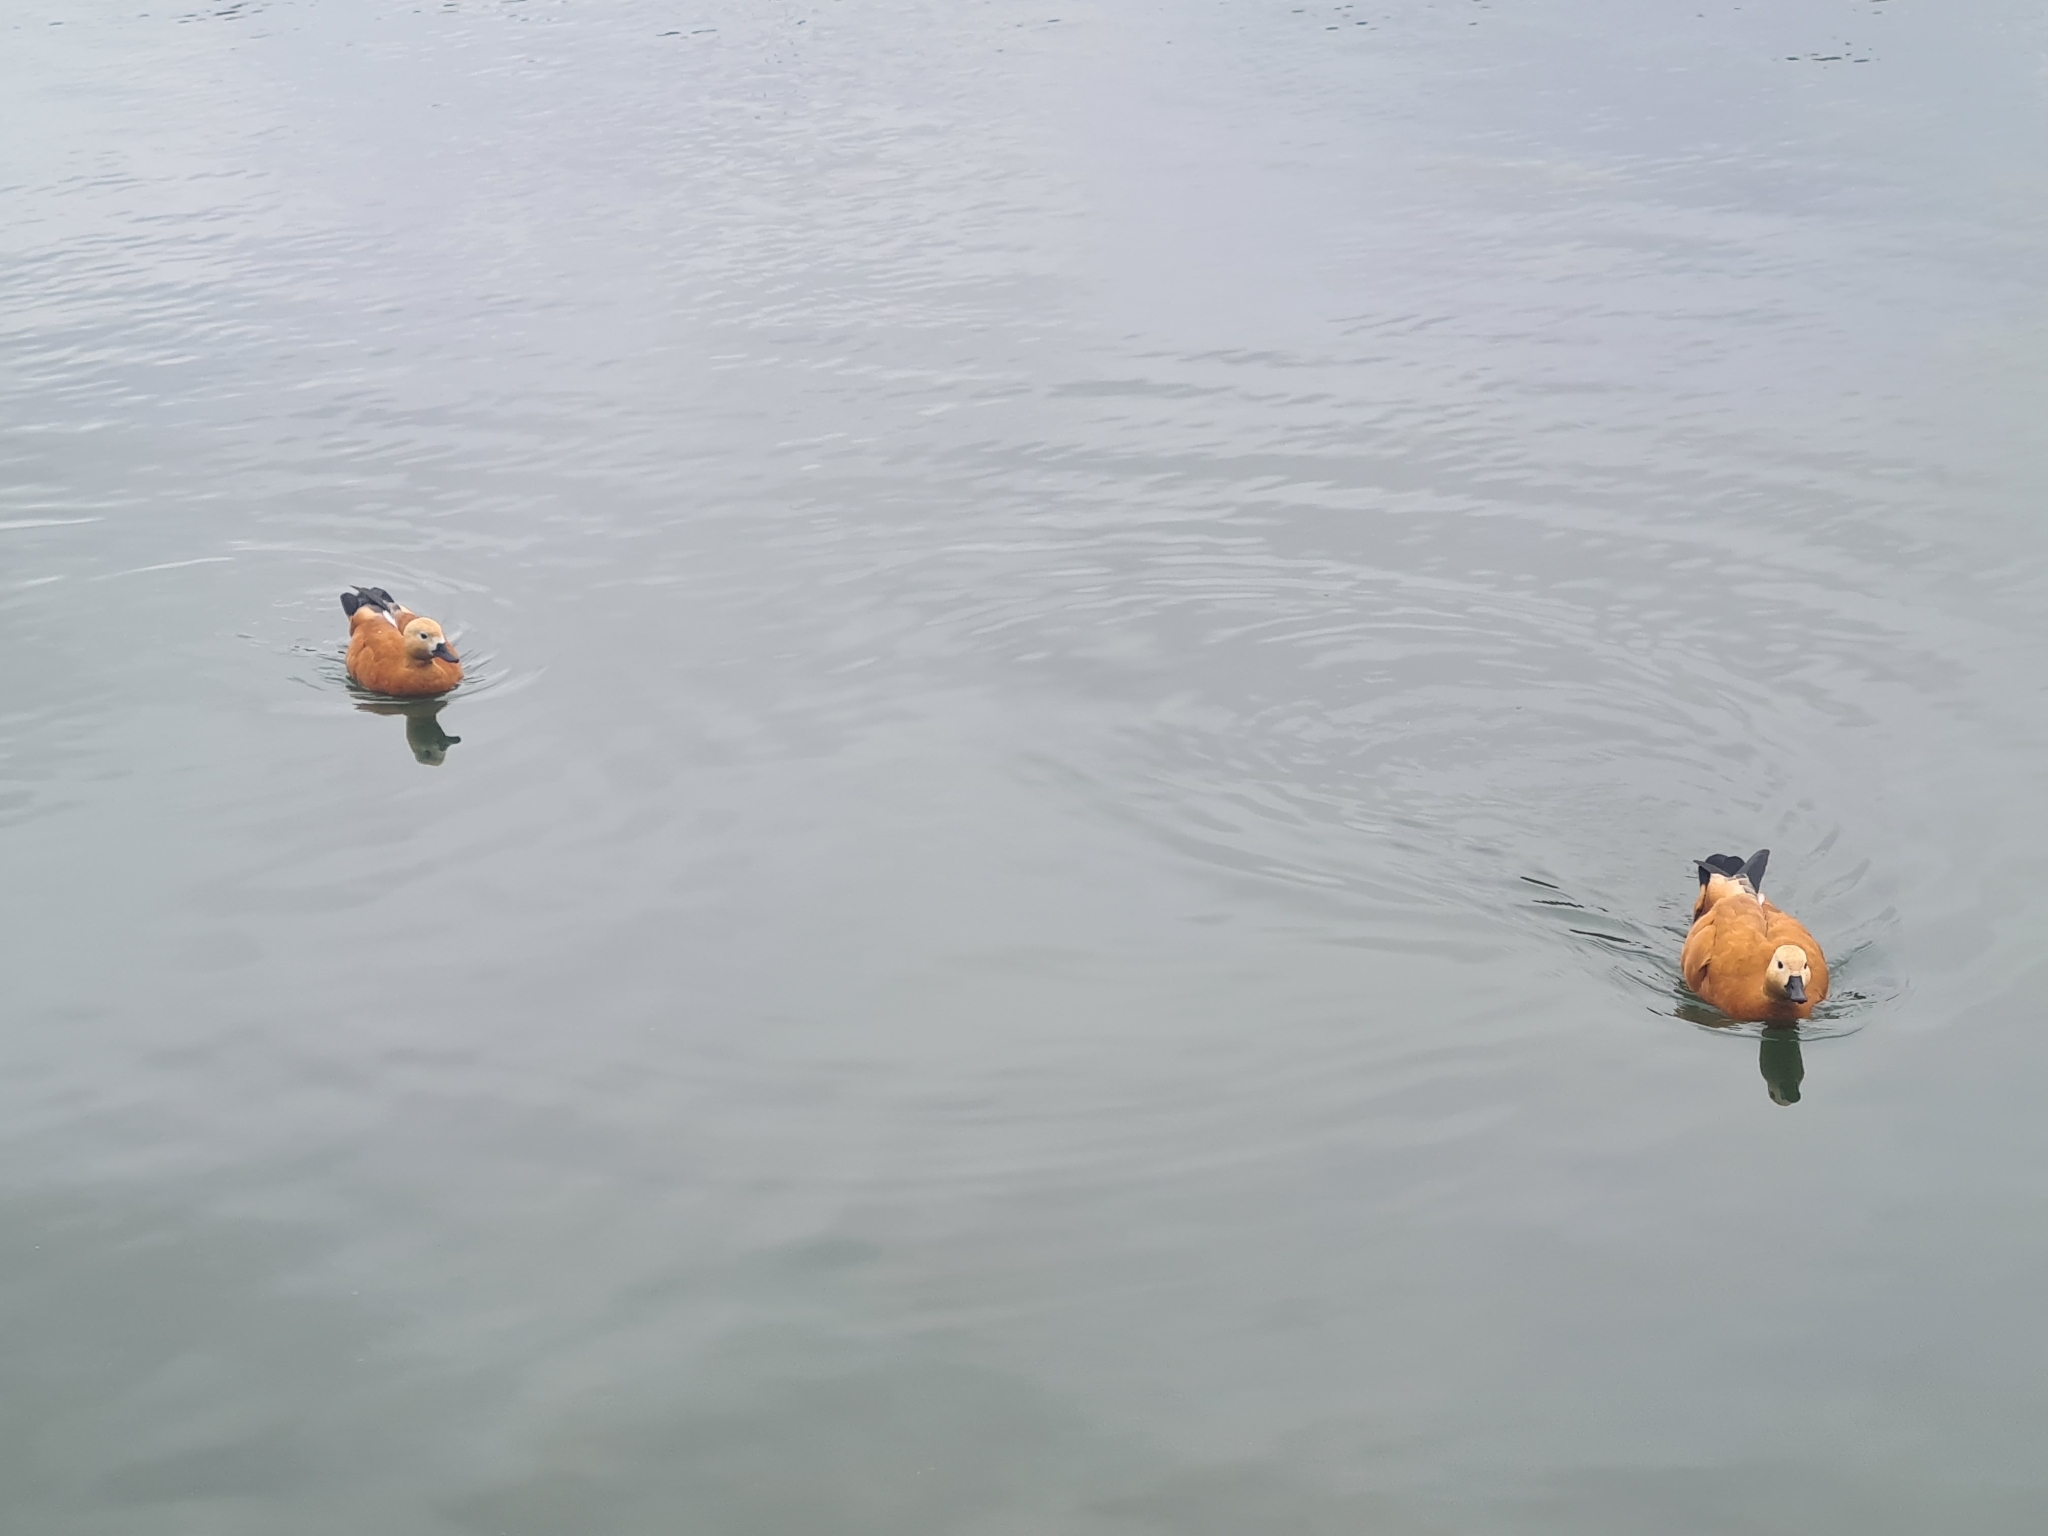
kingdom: Animalia
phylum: Chordata
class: Aves
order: Anseriformes
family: Anatidae
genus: Tadorna
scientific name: Tadorna ferruginea
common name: Ruddy shelduck
